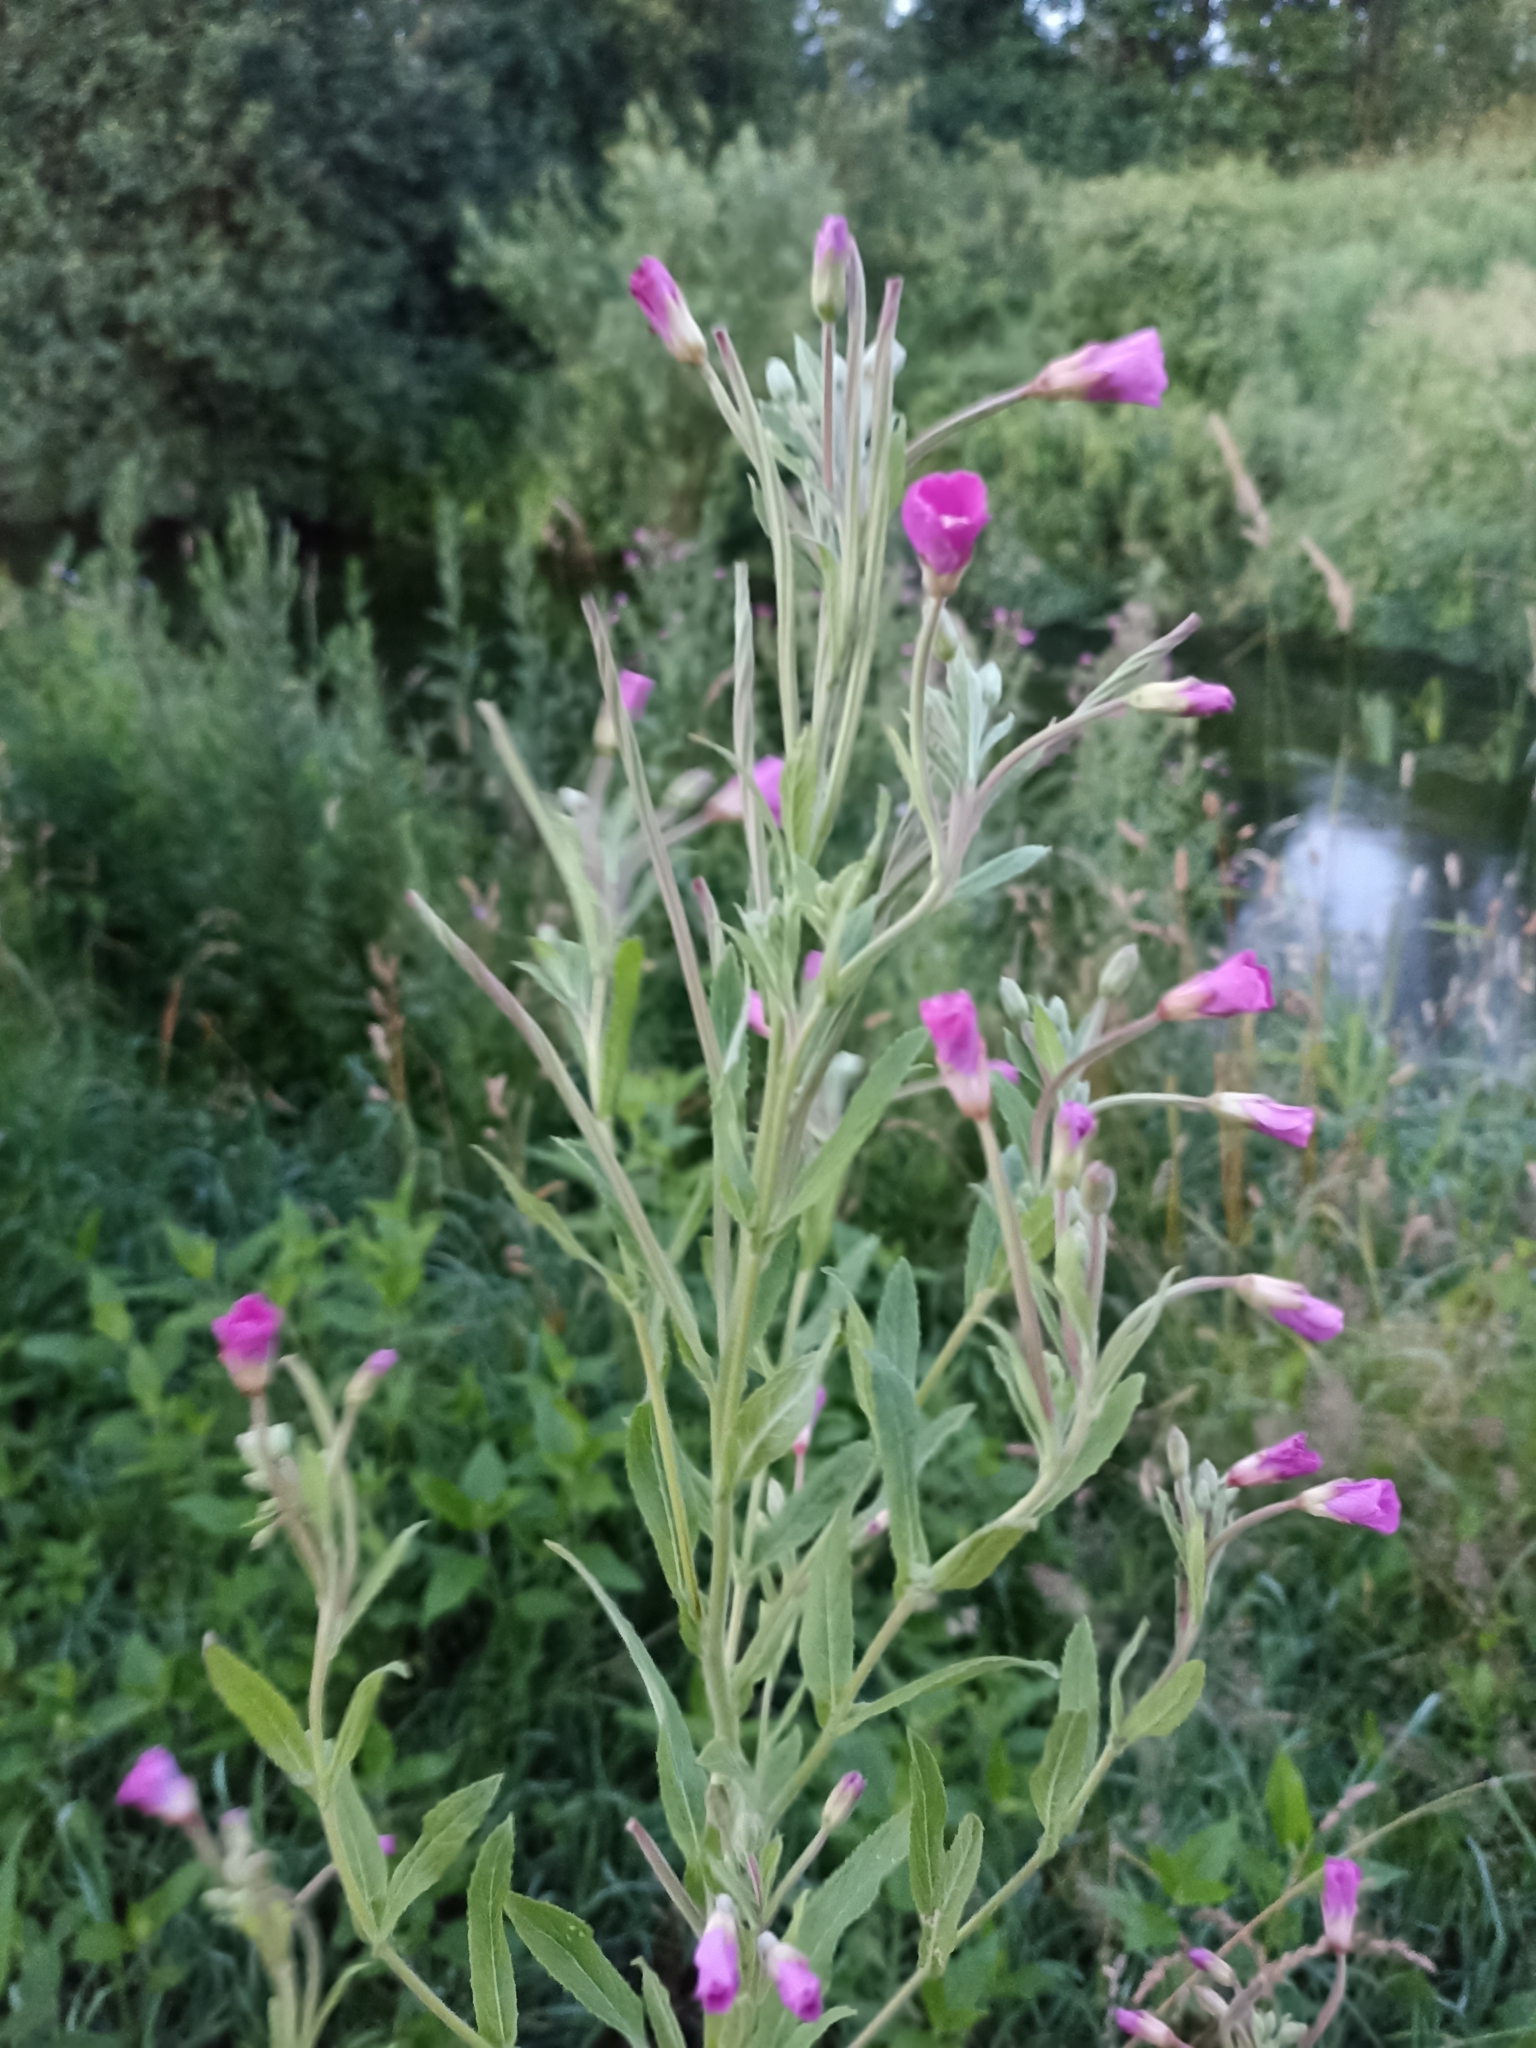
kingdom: Plantae
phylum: Tracheophyta
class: Magnoliopsida
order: Myrtales
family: Onagraceae
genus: Epilobium
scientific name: Epilobium hirsutum
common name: Great willowherb
